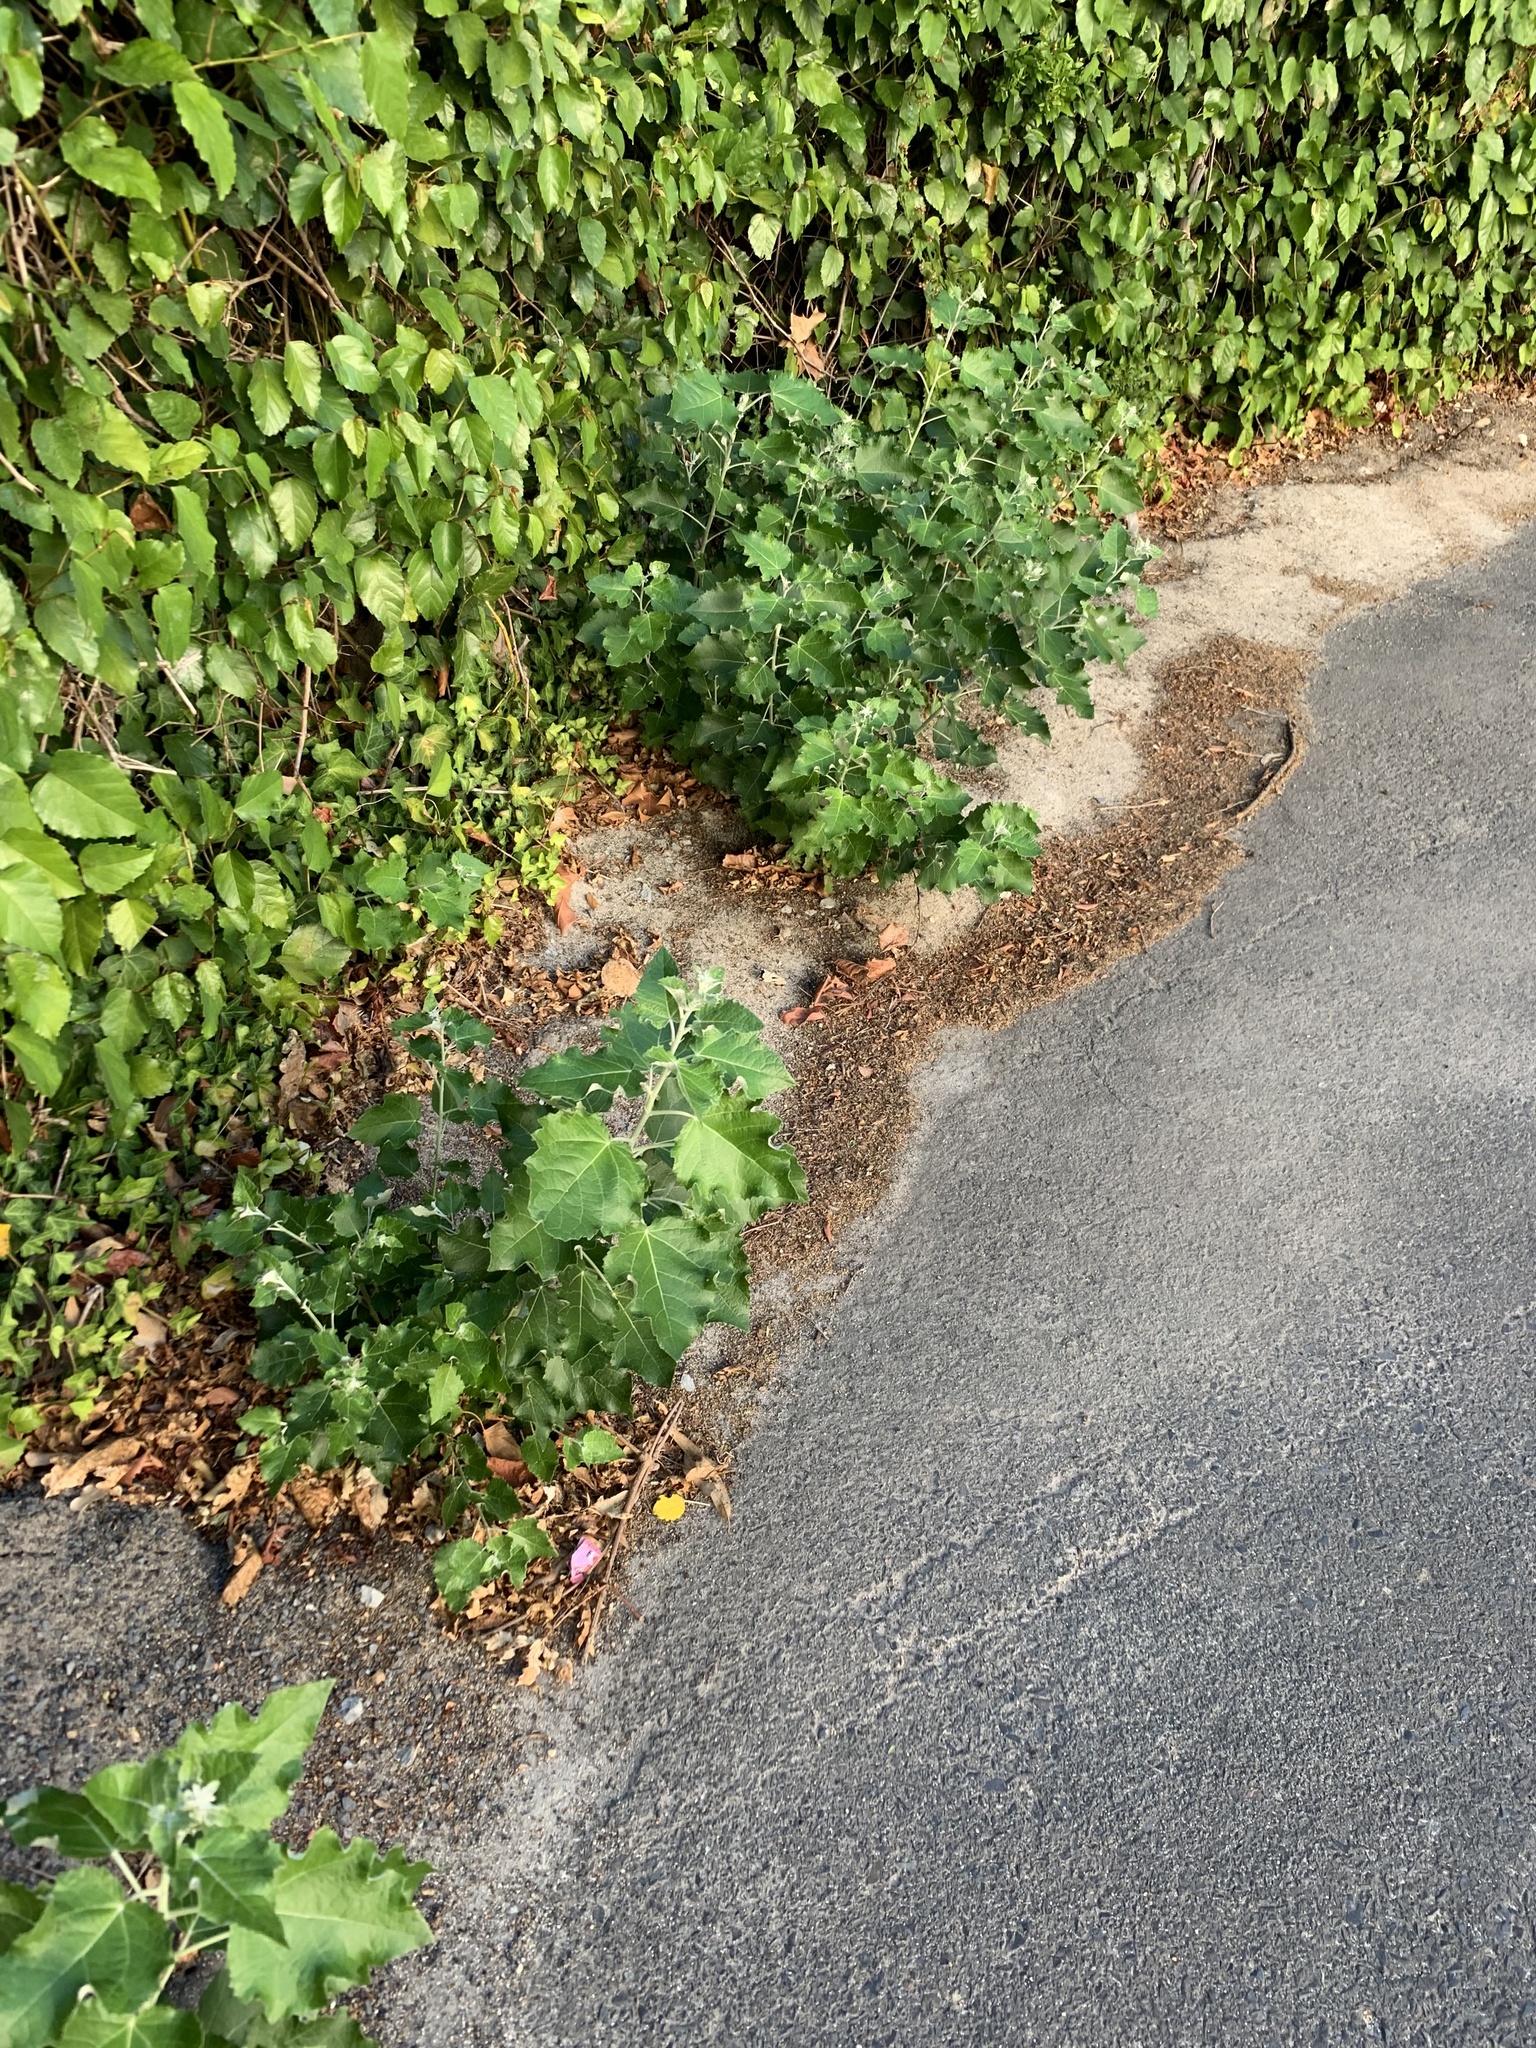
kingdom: Plantae
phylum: Tracheophyta
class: Magnoliopsida
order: Malpighiales
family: Salicaceae
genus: Populus
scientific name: Populus canescens
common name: Gray poplar
